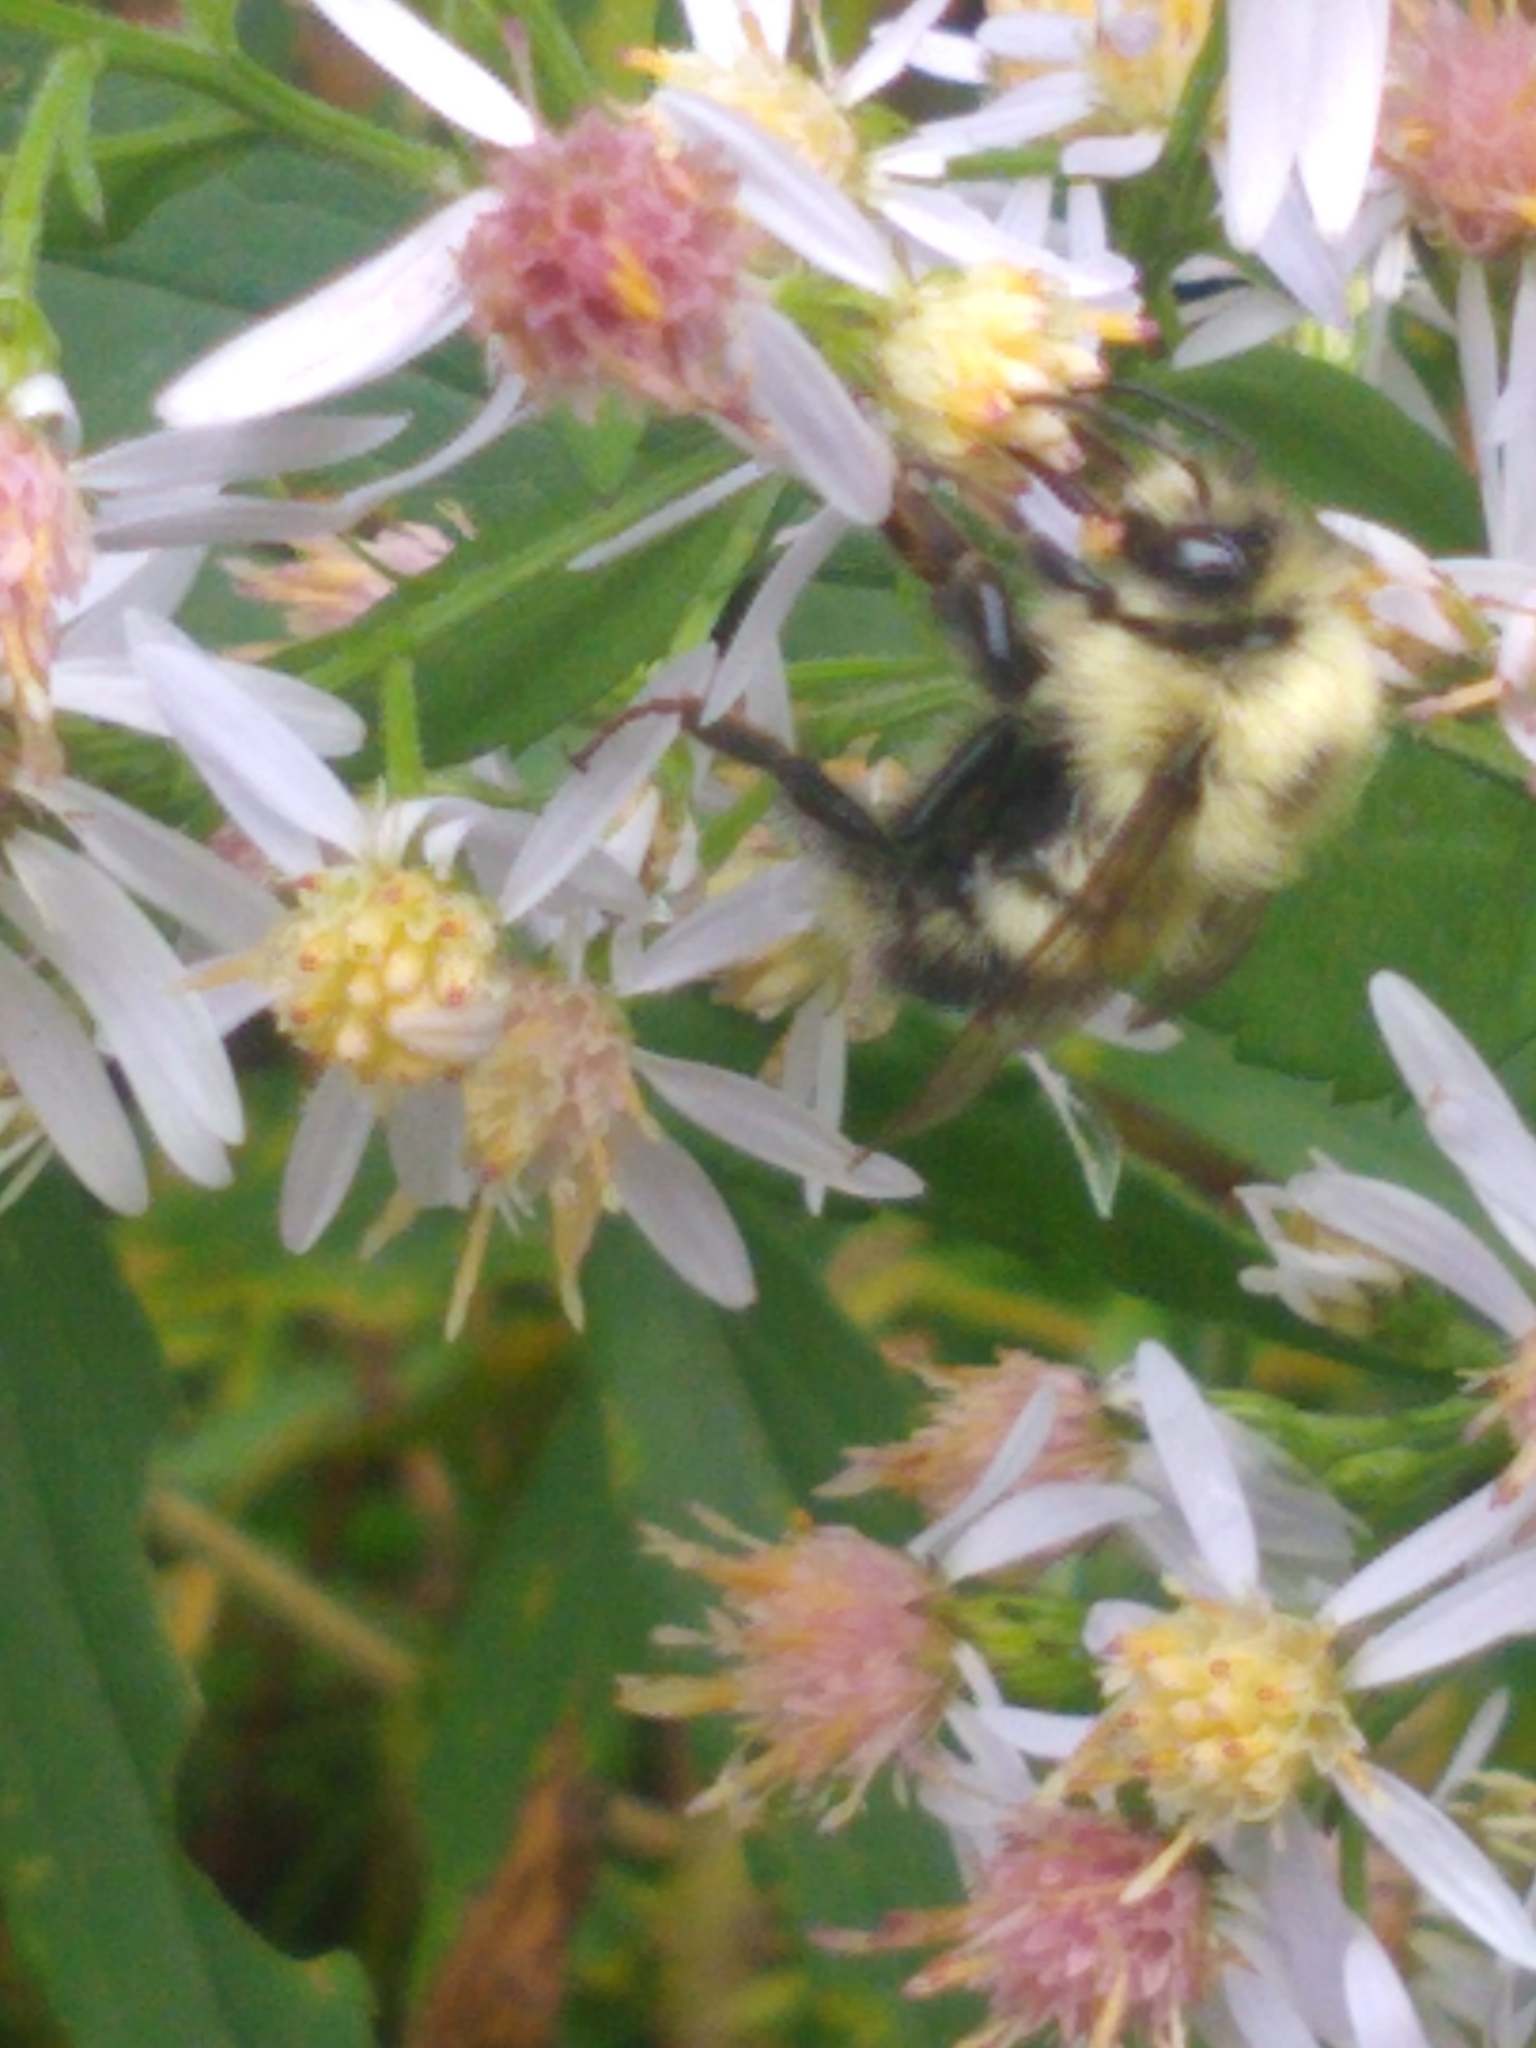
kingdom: Animalia
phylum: Arthropoda
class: Insecta
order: Hymenoptera
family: Apidae
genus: Pyrobombus
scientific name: Pyrobombus
